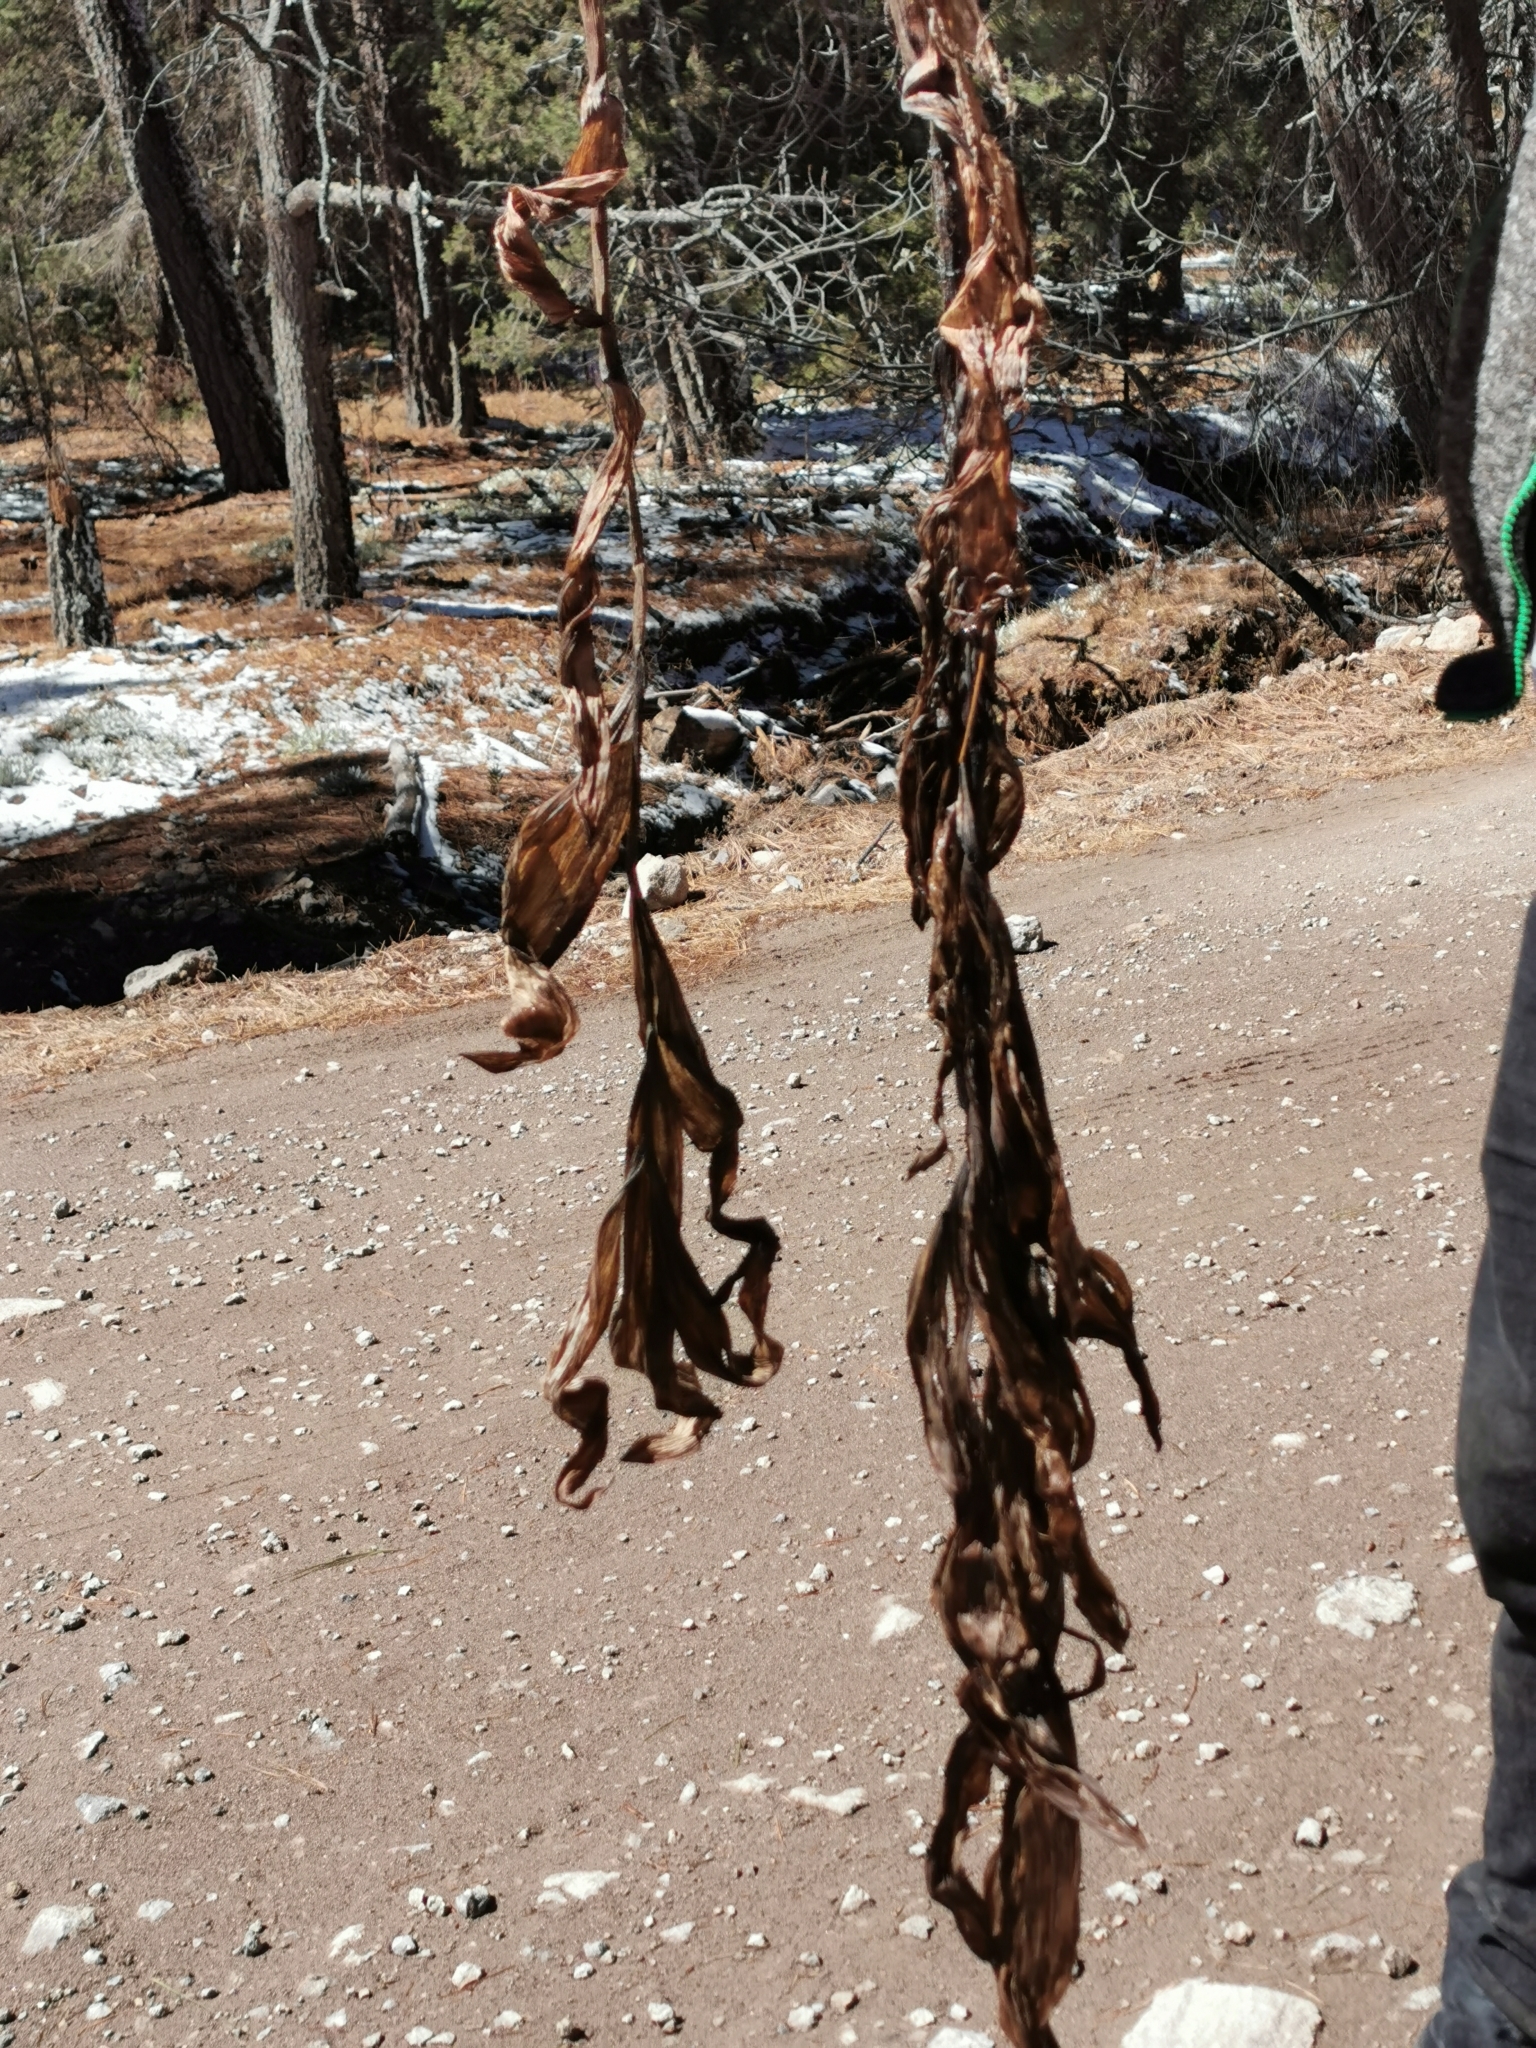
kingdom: Plantae
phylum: Tracheophyta
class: Liliopsida
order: Liliales
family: Melanthiaceae
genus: Veratrum
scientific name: Veratrum californicum
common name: California veratrum
